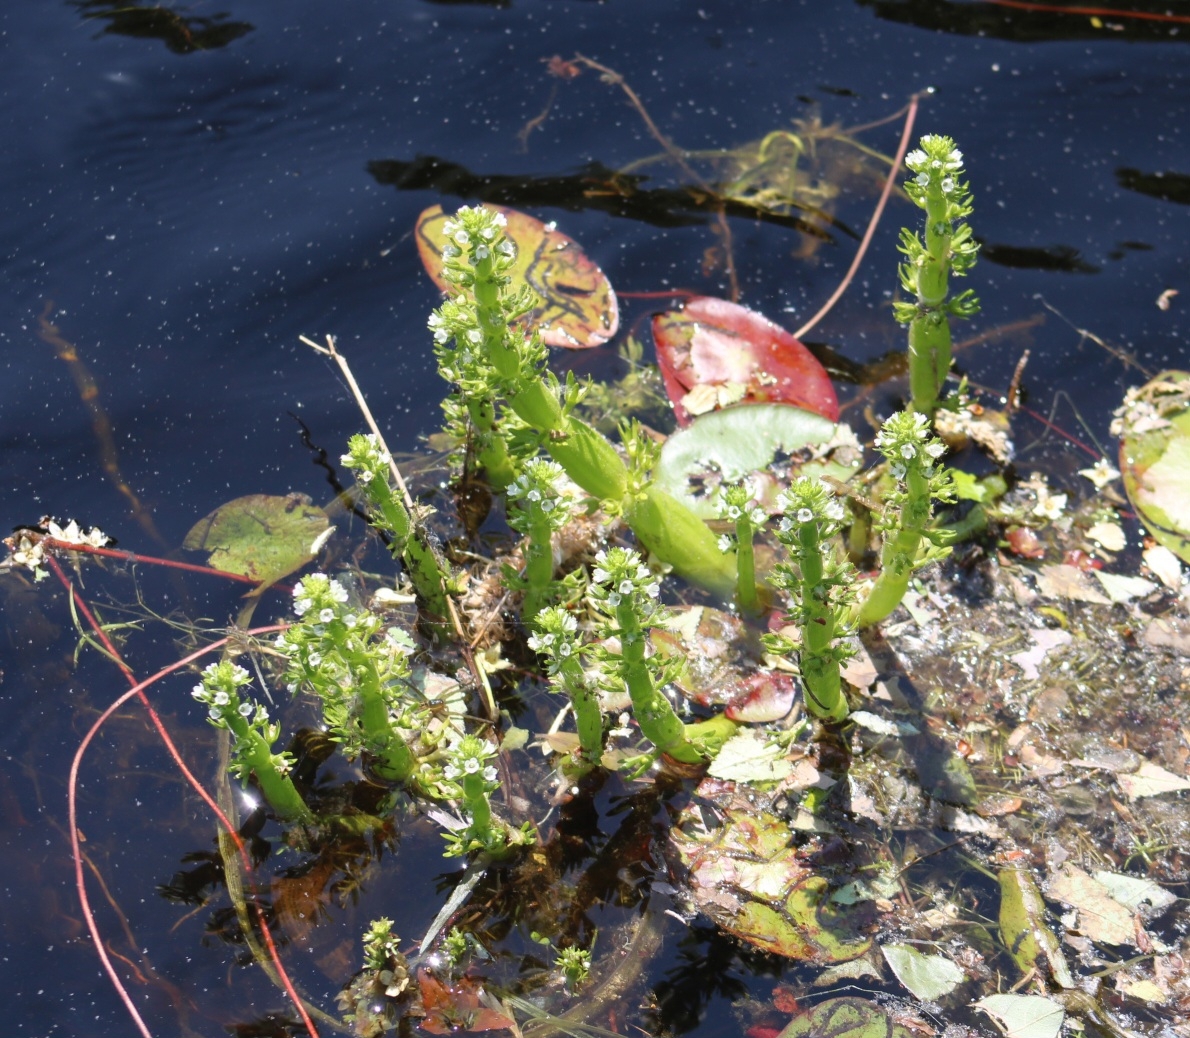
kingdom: Plantae
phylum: Tracheophyta
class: Magnoliopsida
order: Ericales
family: Primulaceae
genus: Hottonia
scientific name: Hottonia inflata
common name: American featherfoil
